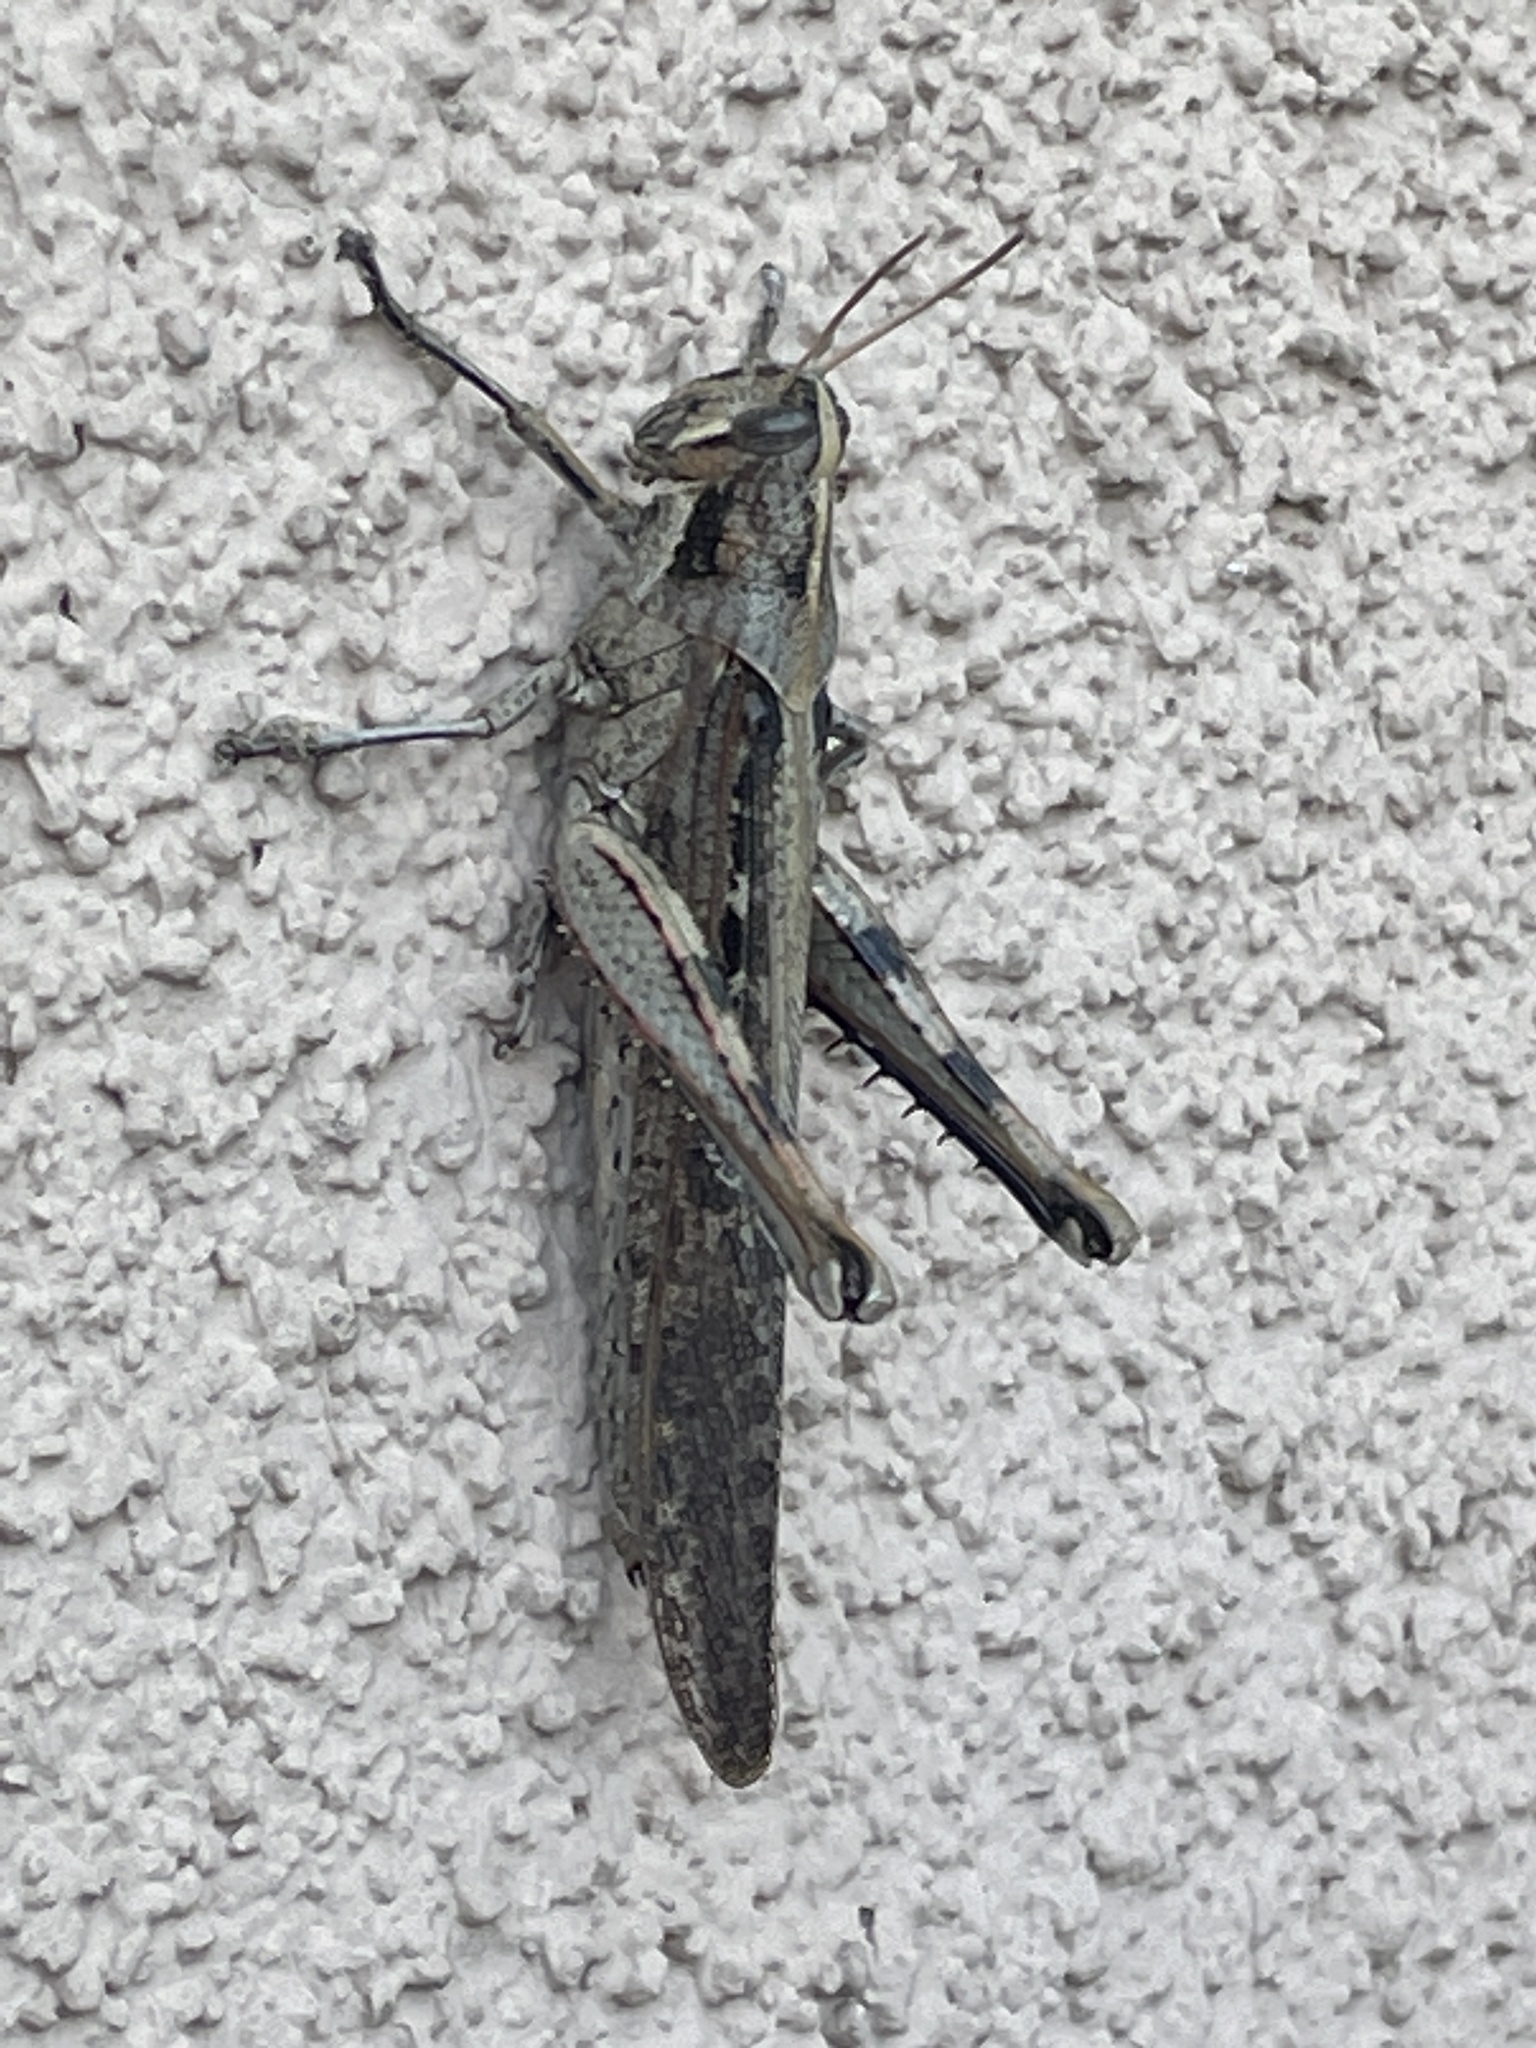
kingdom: Animalia
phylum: Arthropoda
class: Insecta
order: Orthoptera
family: Acrididae
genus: Schistocerca
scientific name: Schistocerca nitens
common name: Vagrant grasshopper
